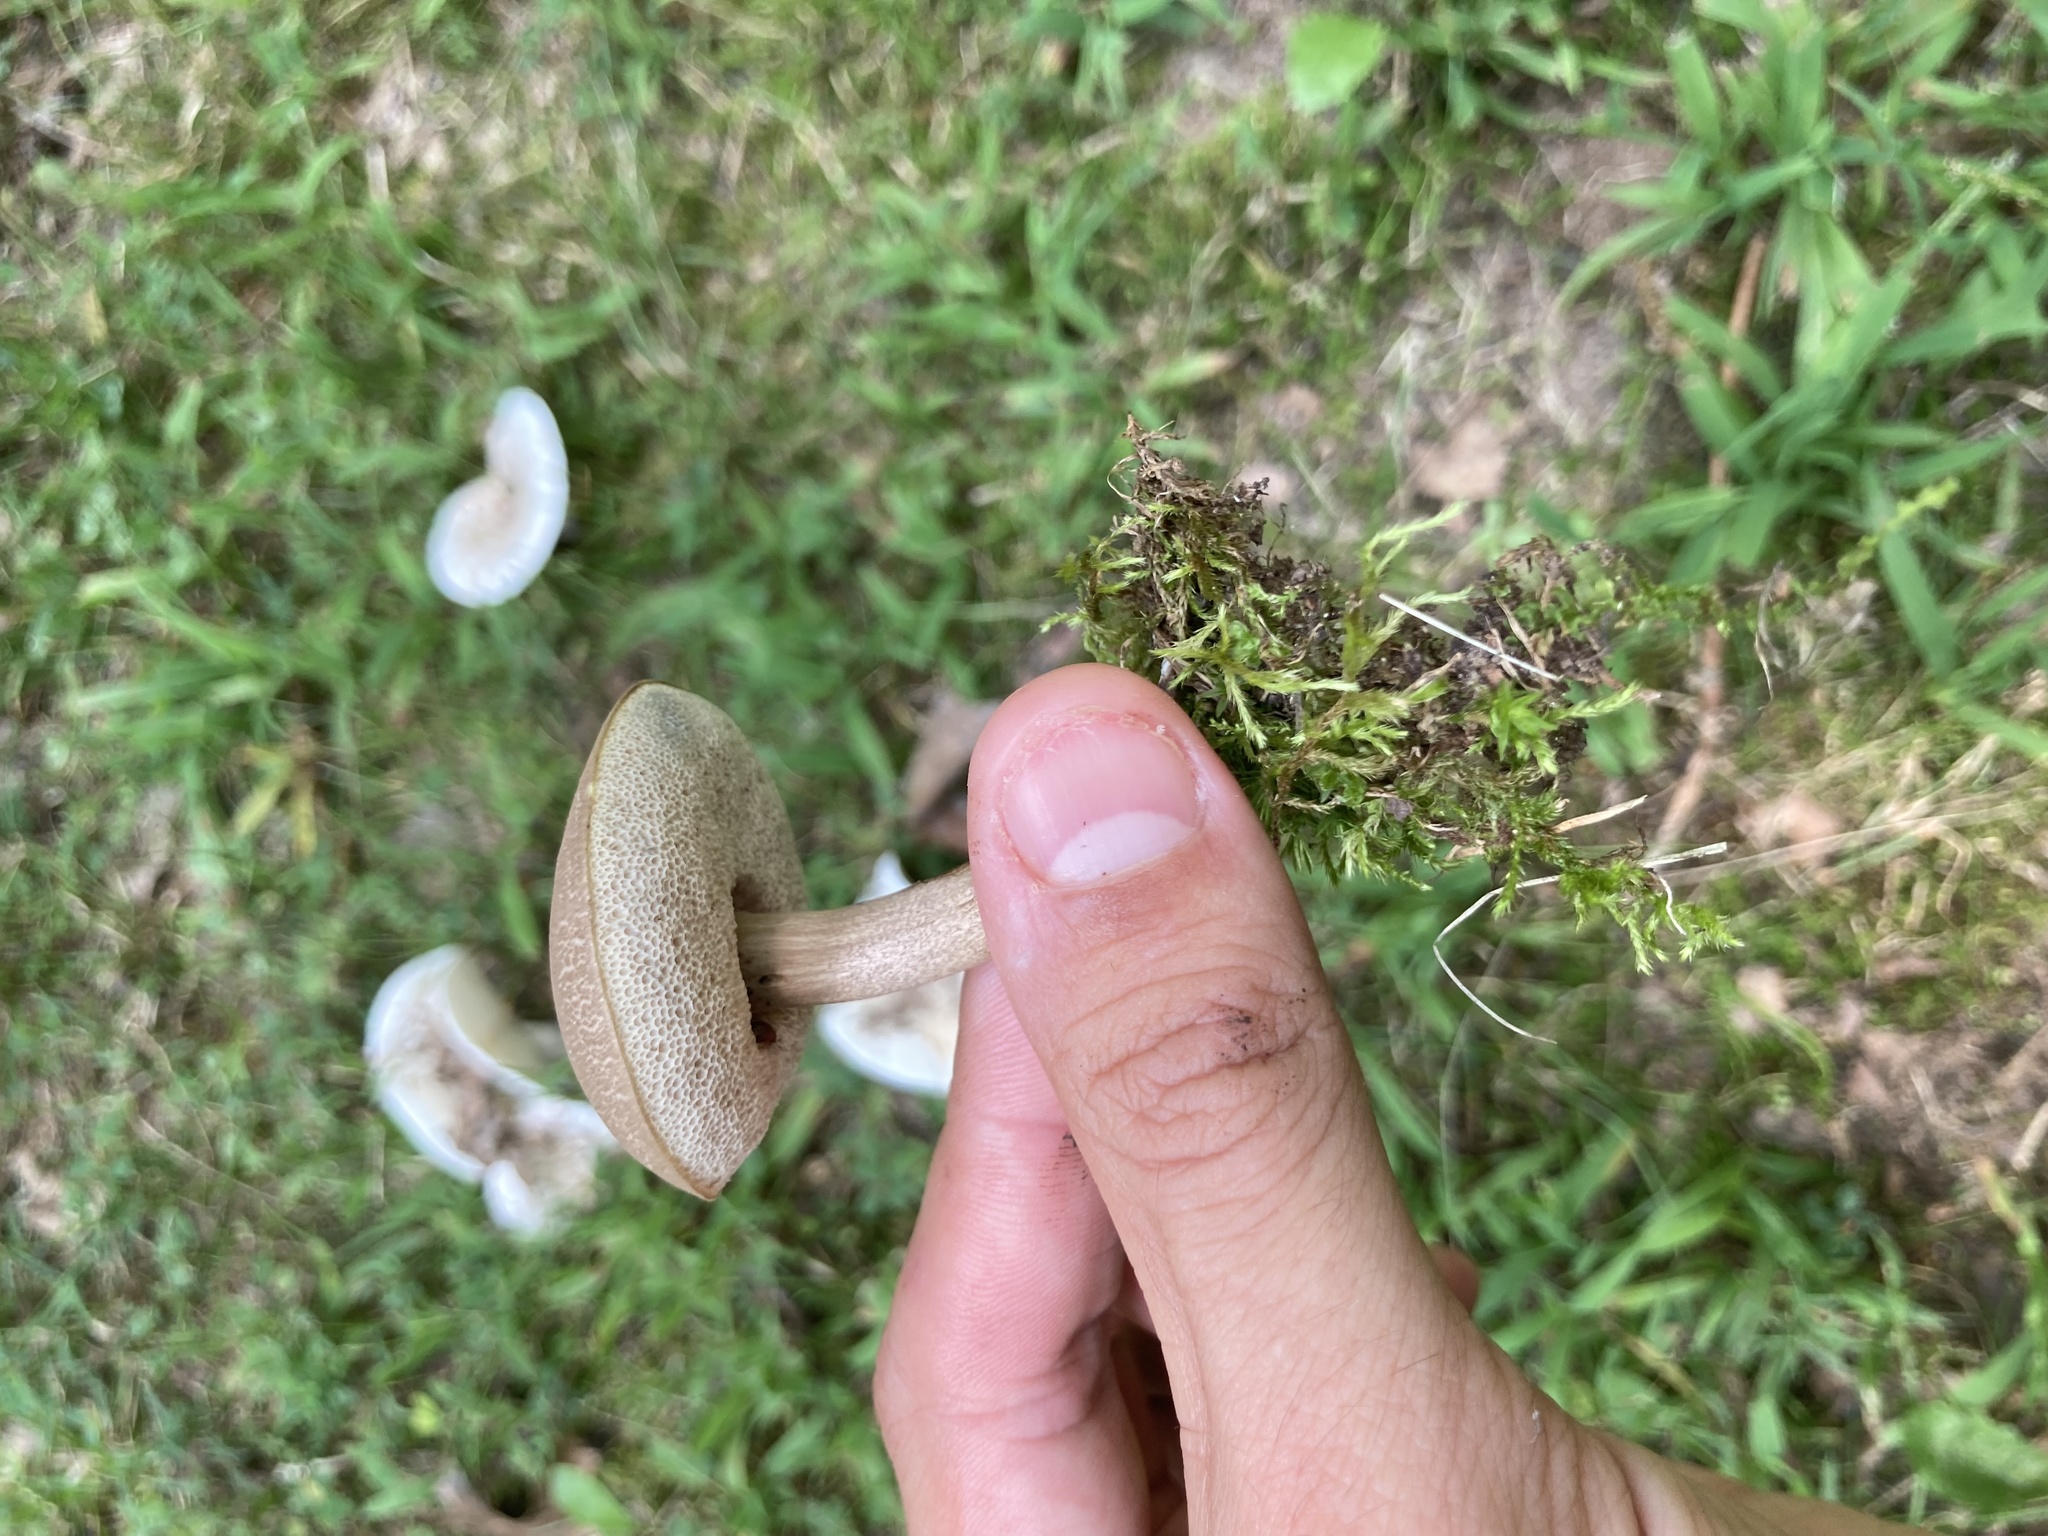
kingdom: Fungi
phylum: Basidiomycota
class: Agaricomycetes
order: Boletales
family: Boletaceae
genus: Xerocomellus
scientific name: Xerocomellus chrysenteron
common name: Red-cracking bolete
